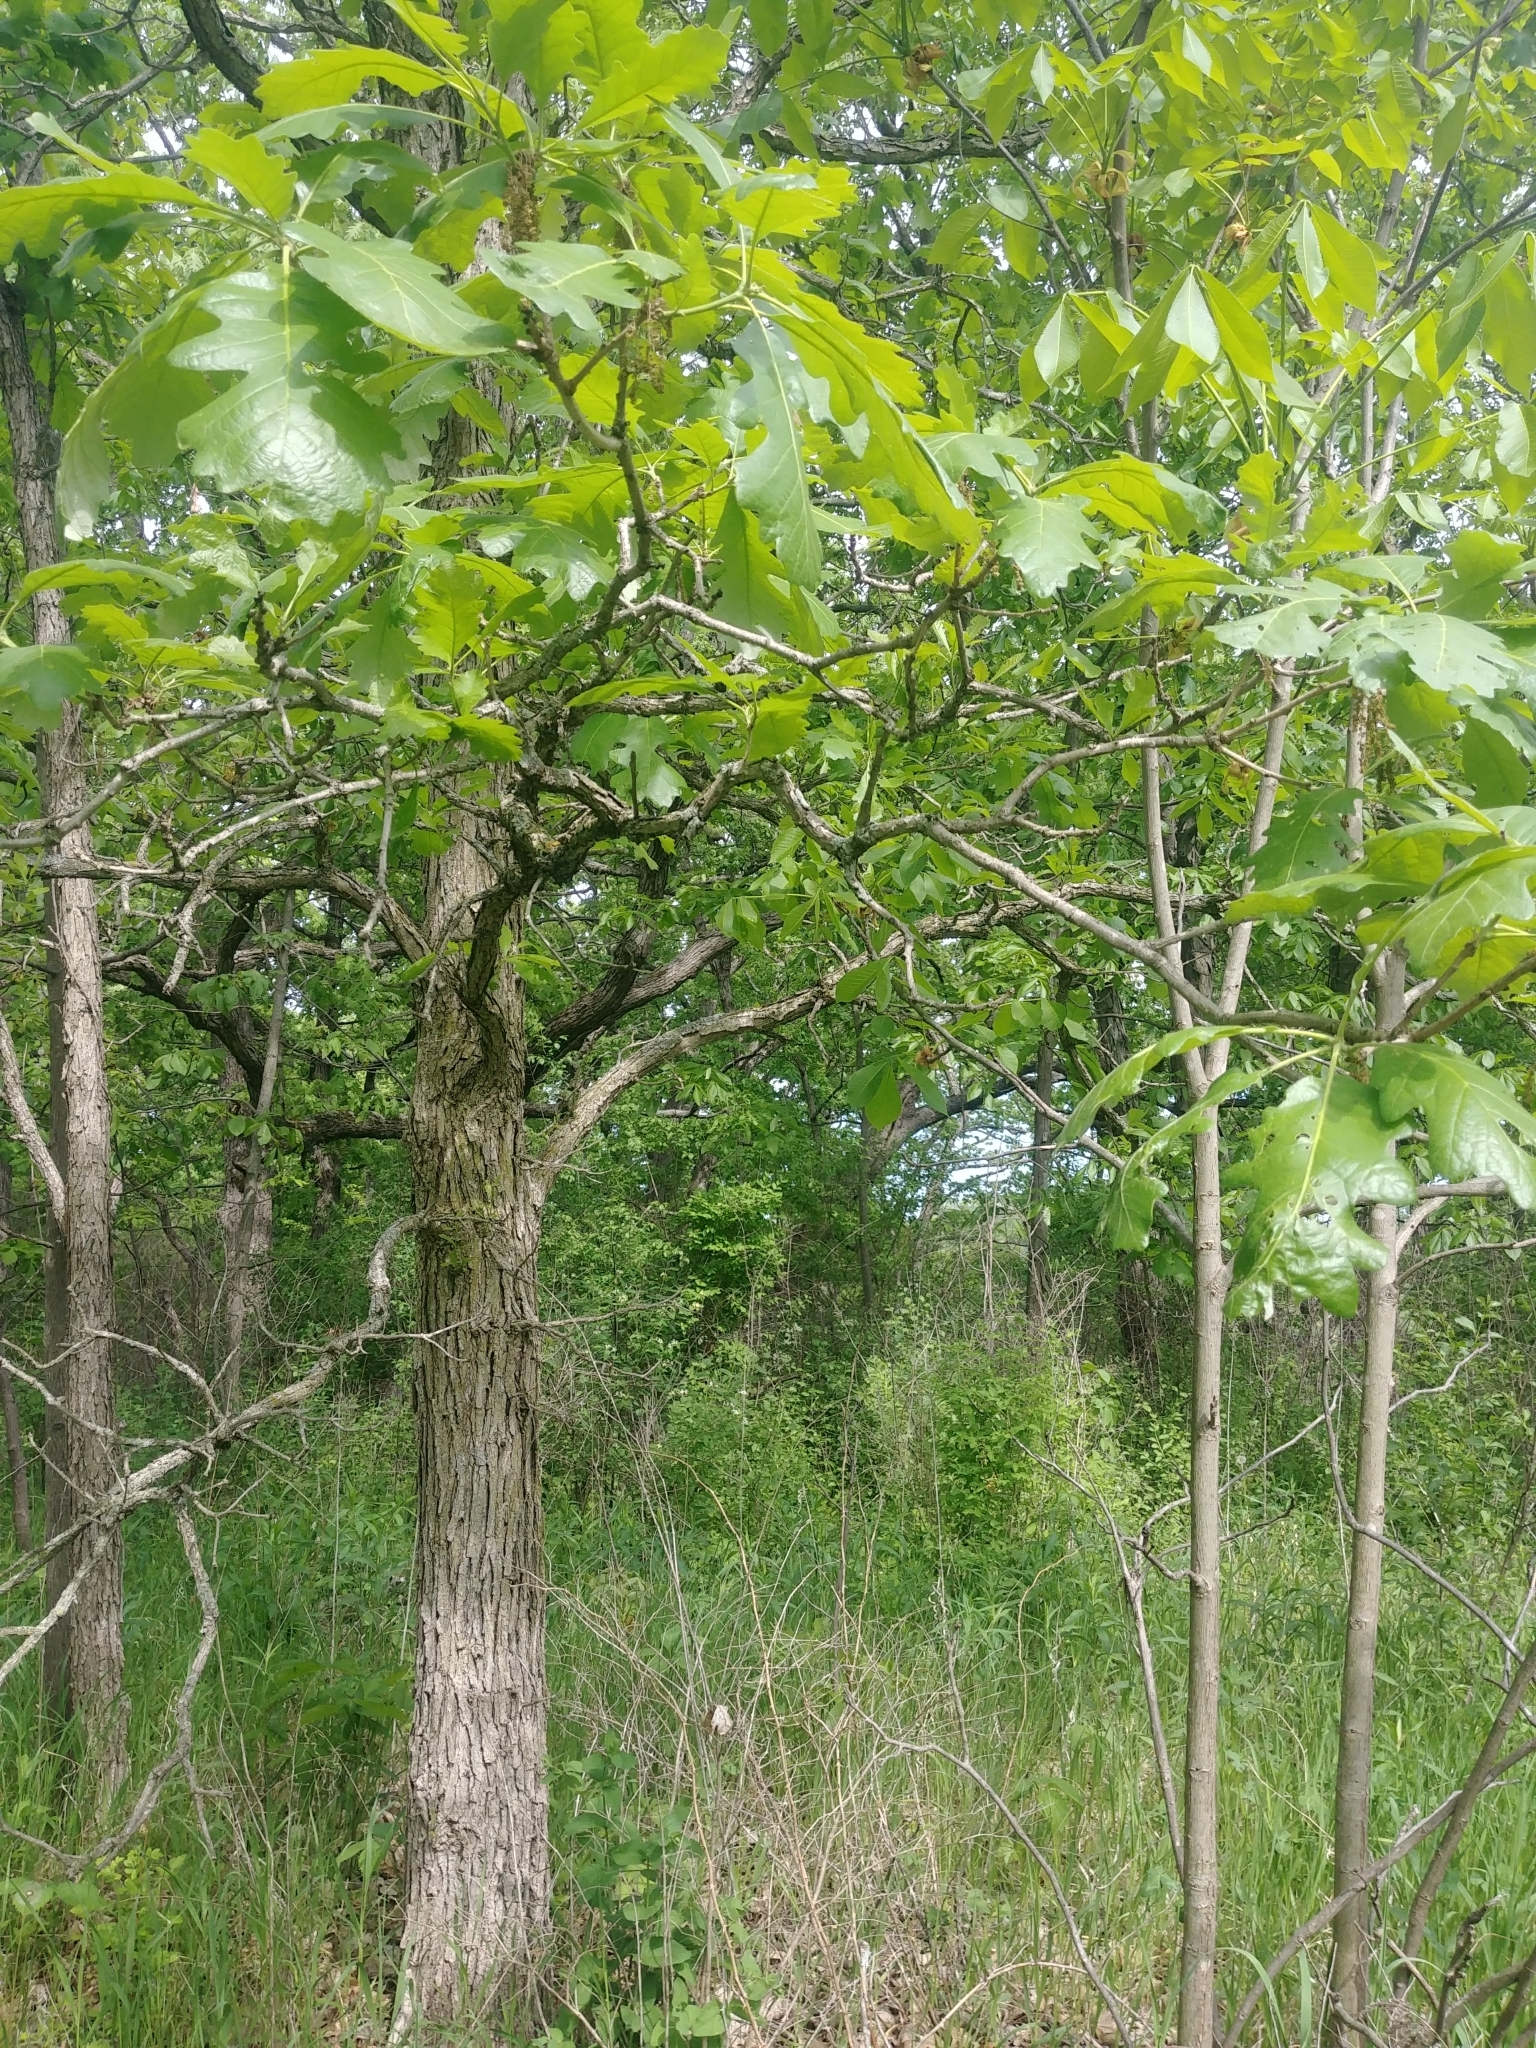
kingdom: Plantae
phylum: Tracheophyta
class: Magnoliopsida
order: Fagales
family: Fagaceae
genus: Quercus
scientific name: Quercus bicolor
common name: Swamp white oak
